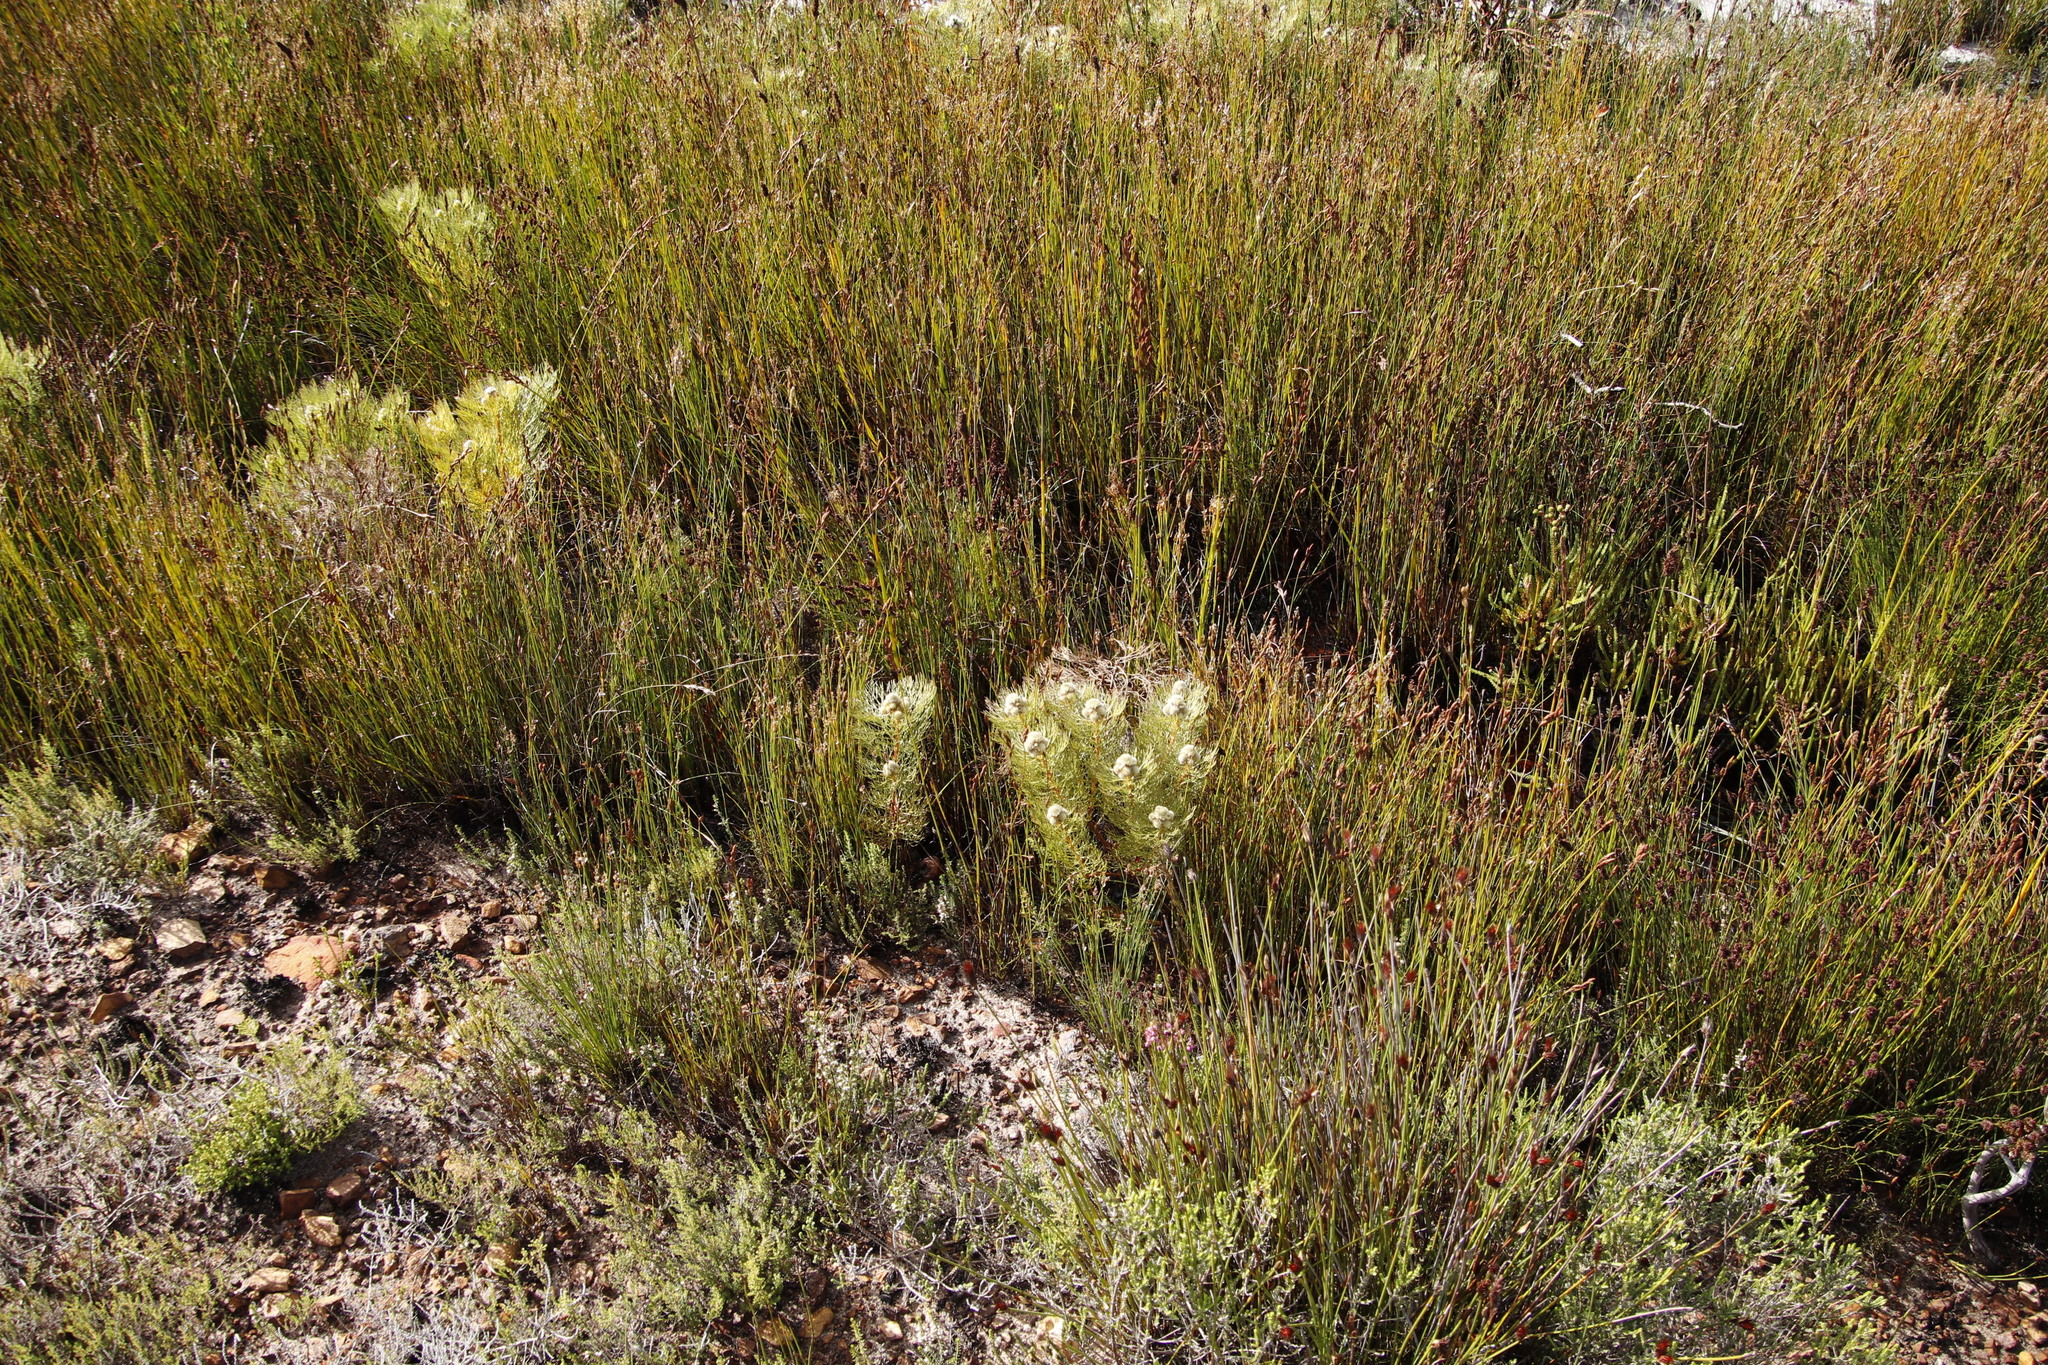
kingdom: Plantae
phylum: Tracheophyta
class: Magnoliopsida
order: Proteales
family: Proteaceae
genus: Serruria
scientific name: Serruria glomerata
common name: Cluster spiderhead
